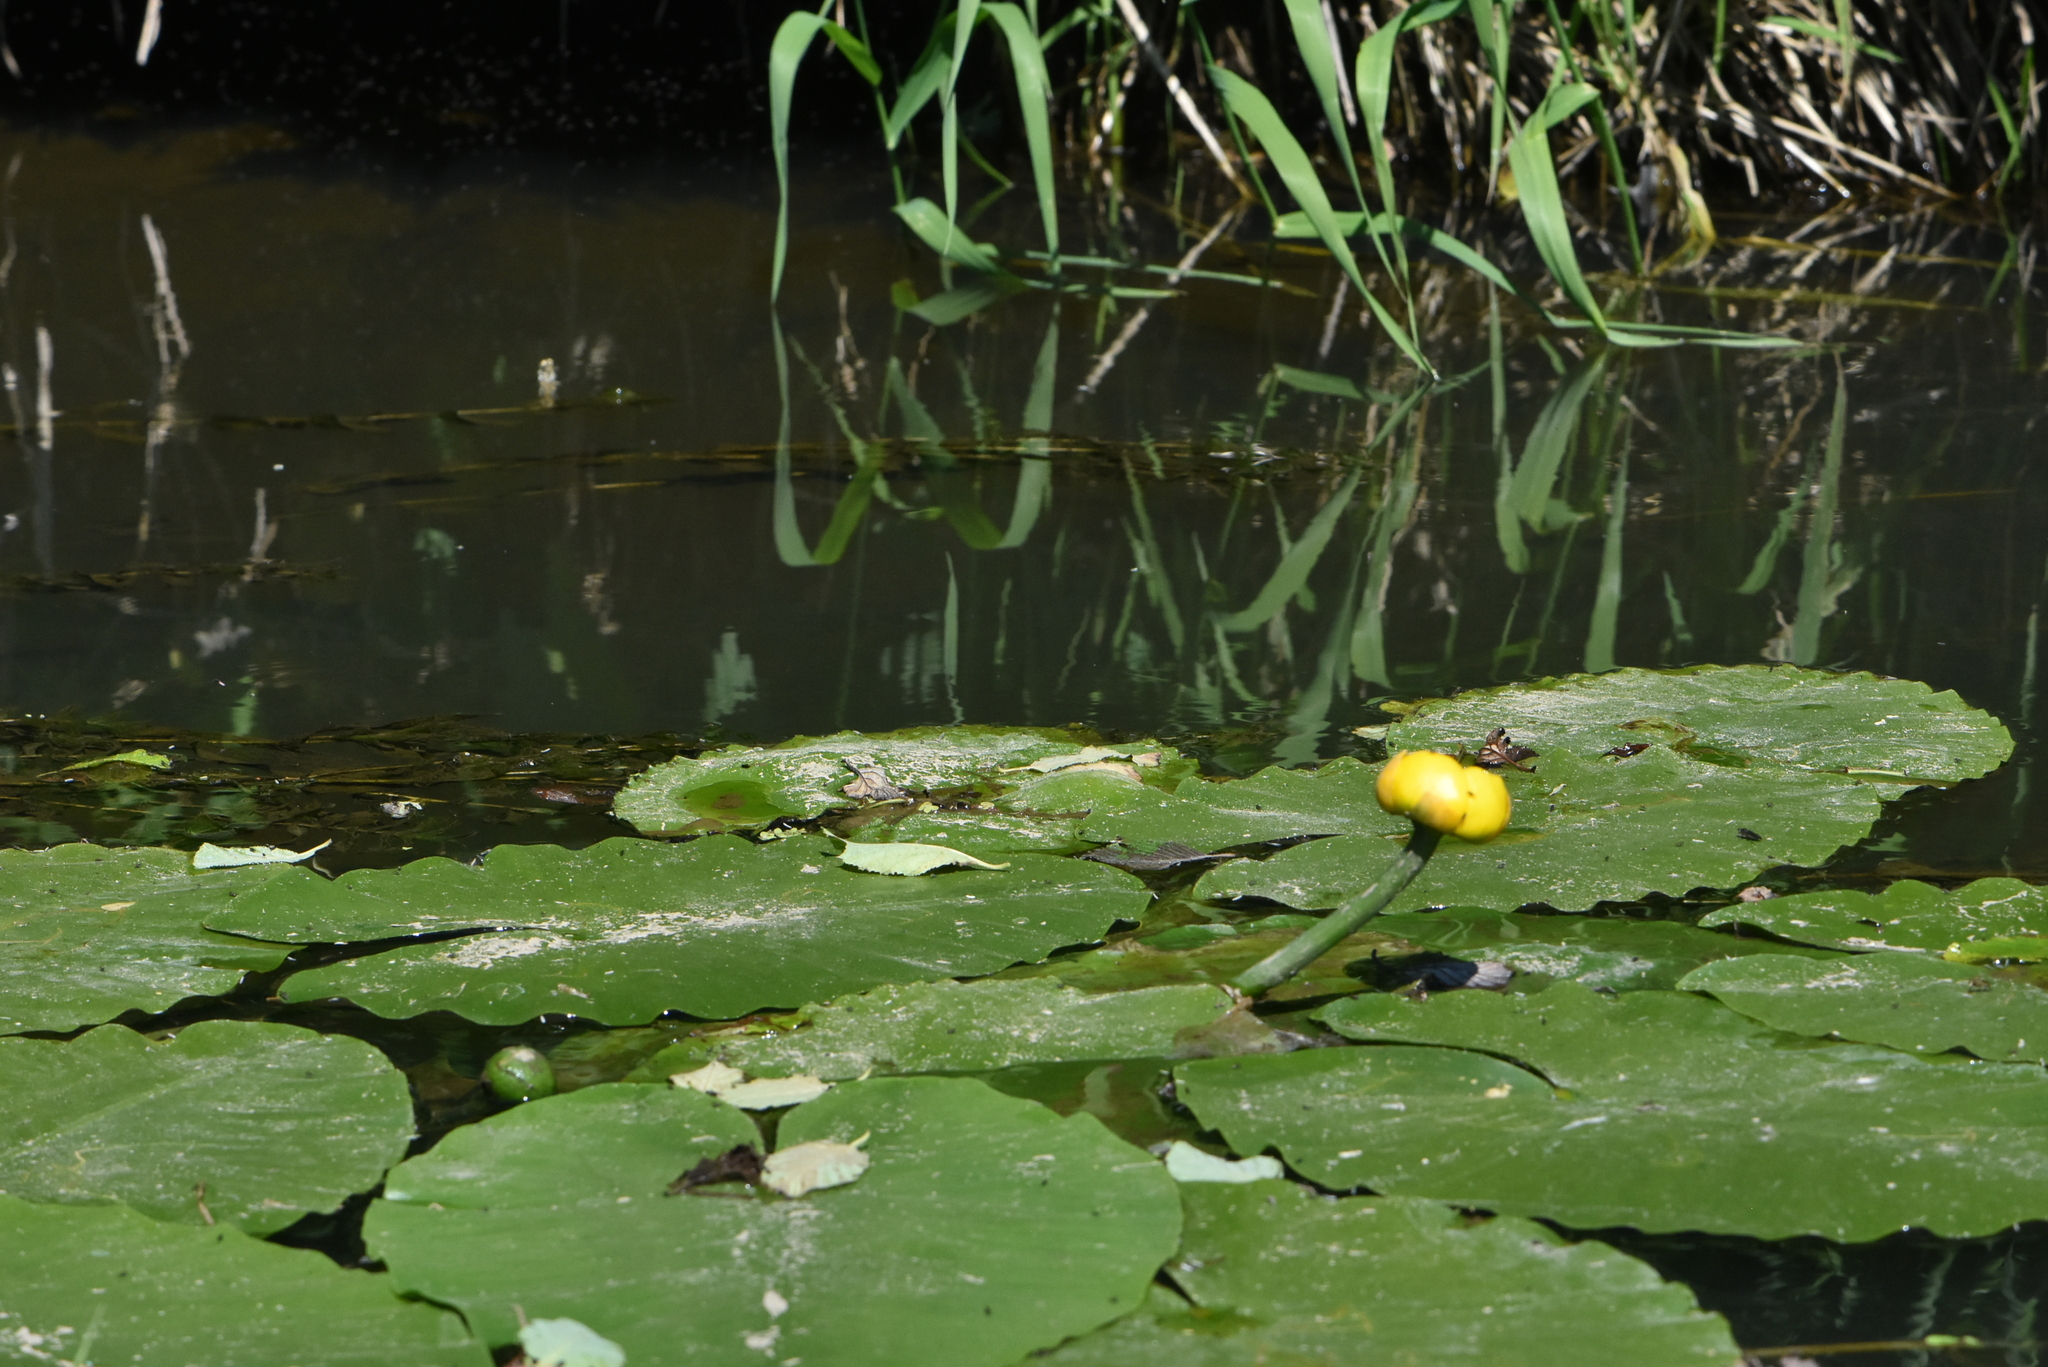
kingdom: Plantae
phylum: Tracheophyta
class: Magnoliopsida
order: Nymphaeales
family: Nymphaeaceae
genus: Nuphar
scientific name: Nuphar lutea
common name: Yellow water-lily
